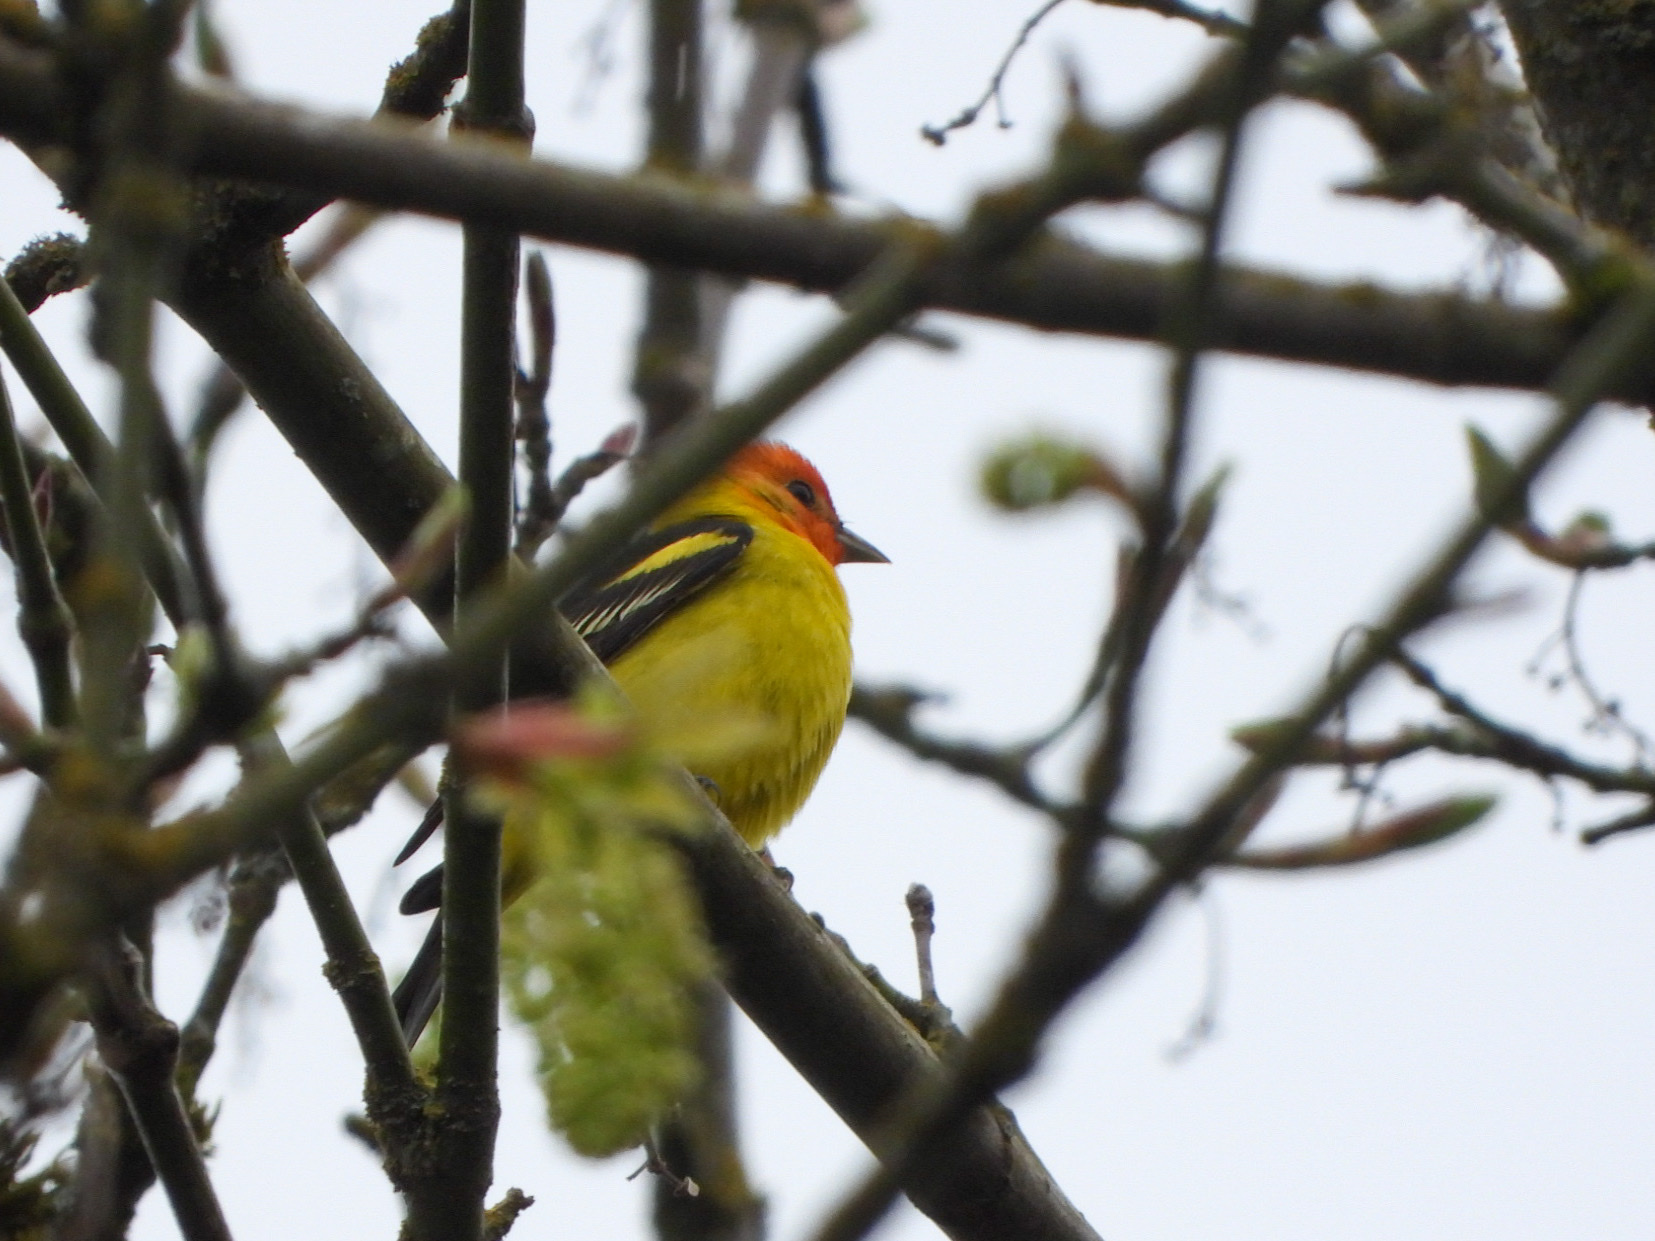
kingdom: Animalia
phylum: Chordata
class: Aves
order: Passeriformes
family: Cardinalidae
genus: Piranga
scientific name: Piranga ludoviciana
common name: Western tanager
